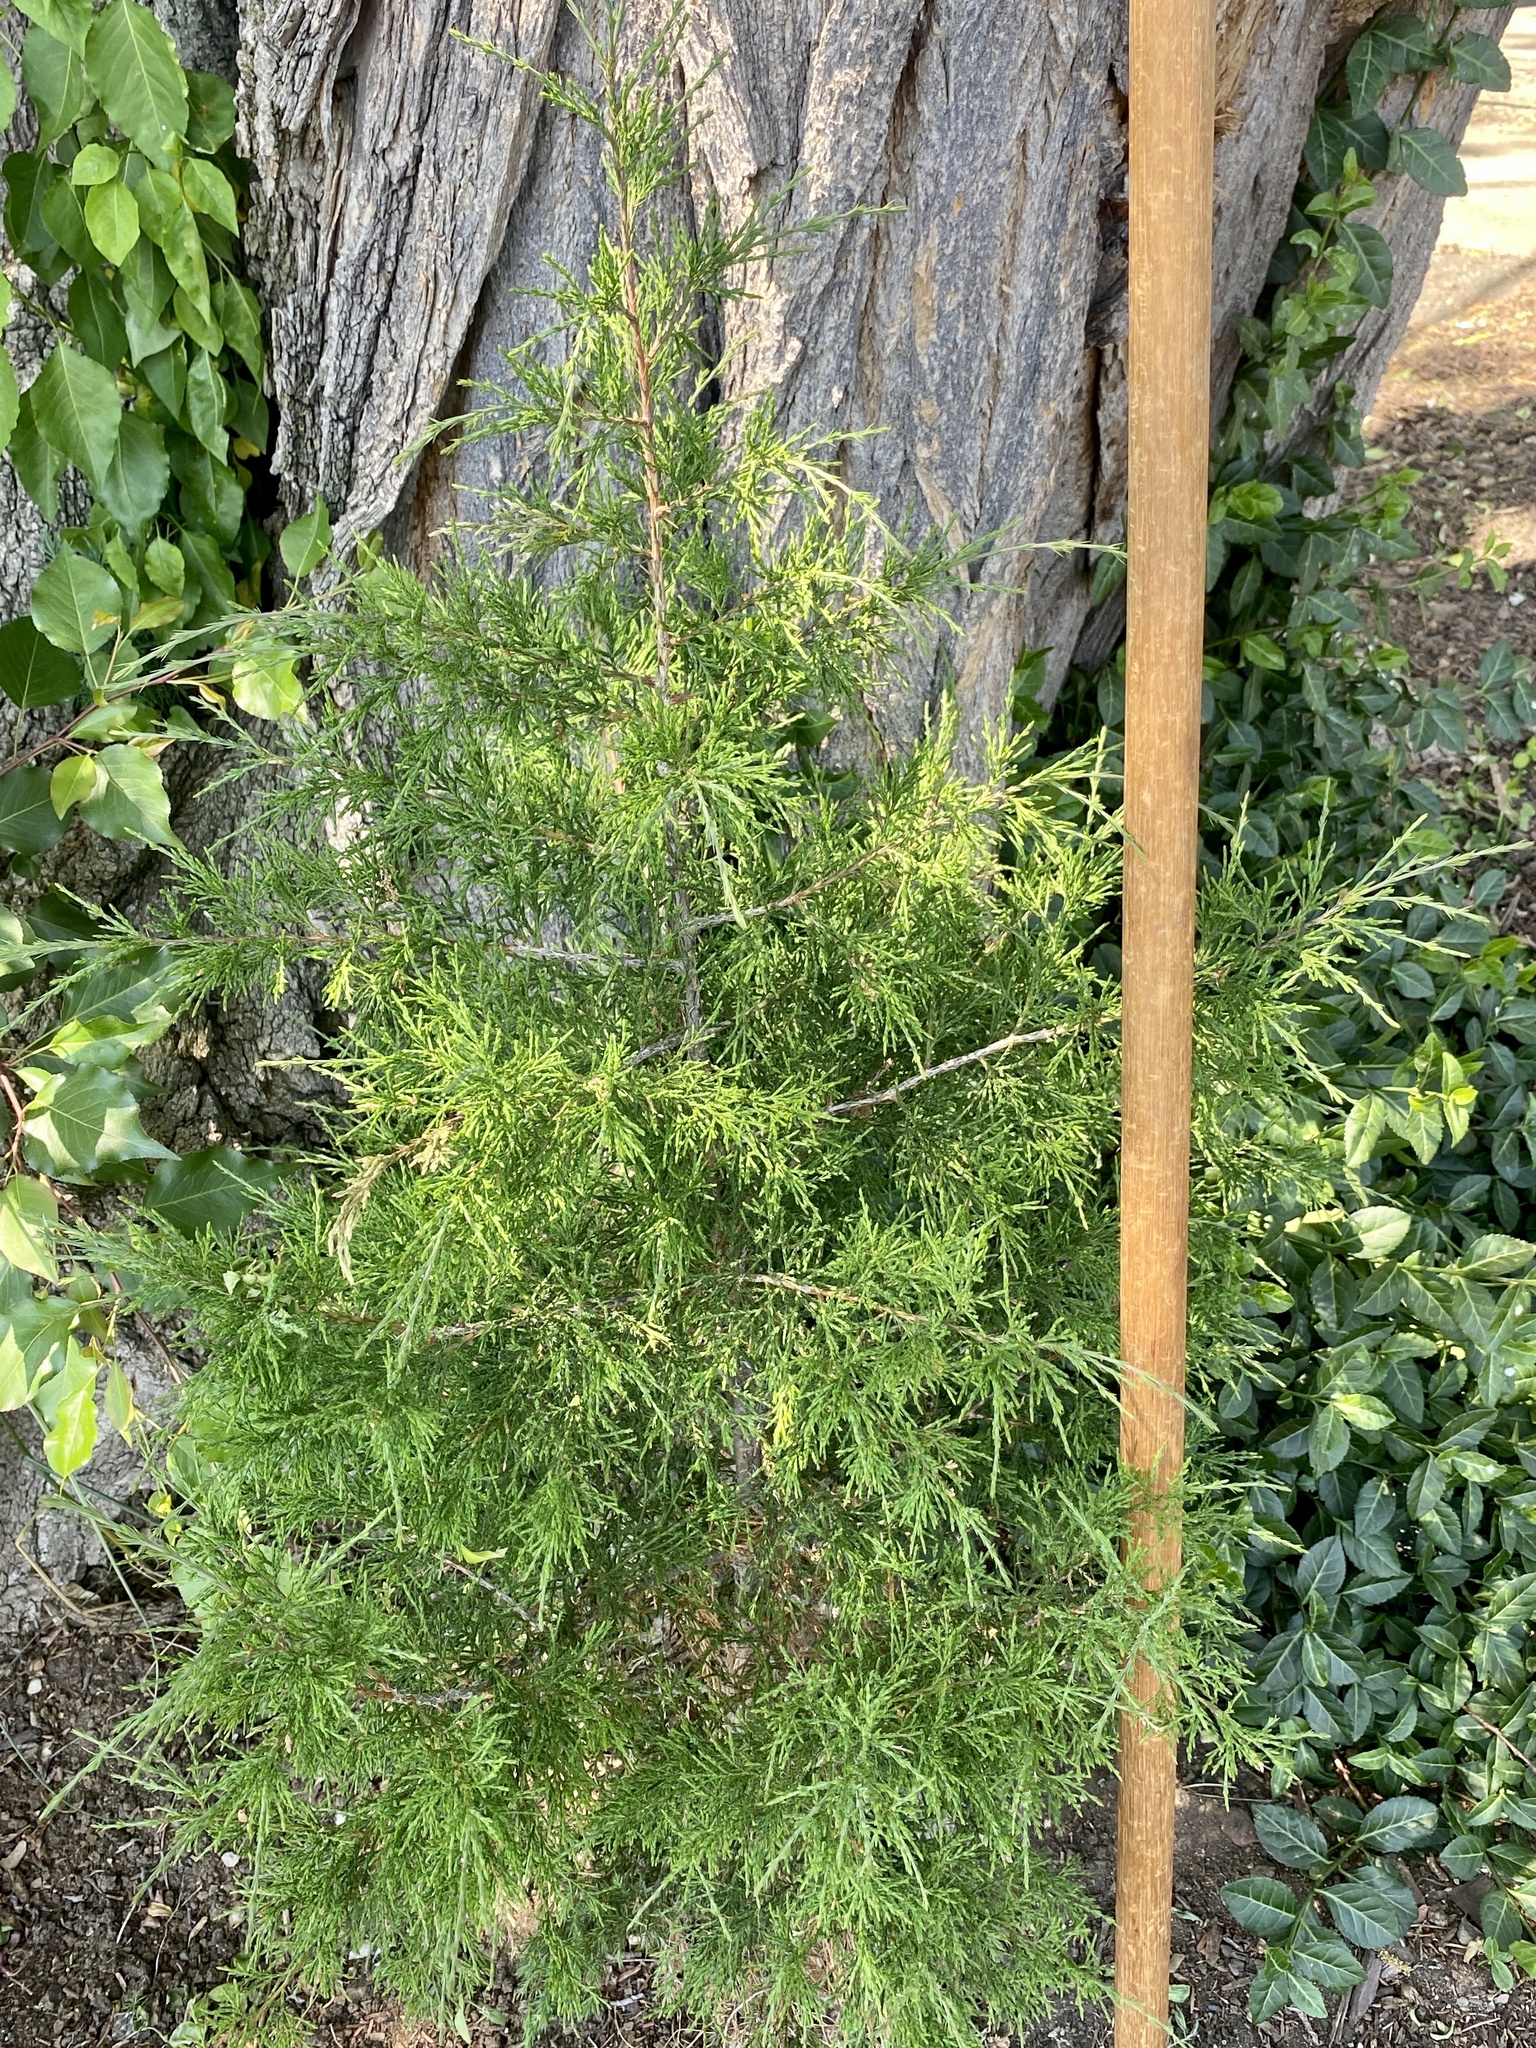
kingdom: Plantae
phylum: Tracheophyta
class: Pinopsida
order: Pinales
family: Cupressaceae
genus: Juniperus
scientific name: Juniperus virginiana
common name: Red juniper
